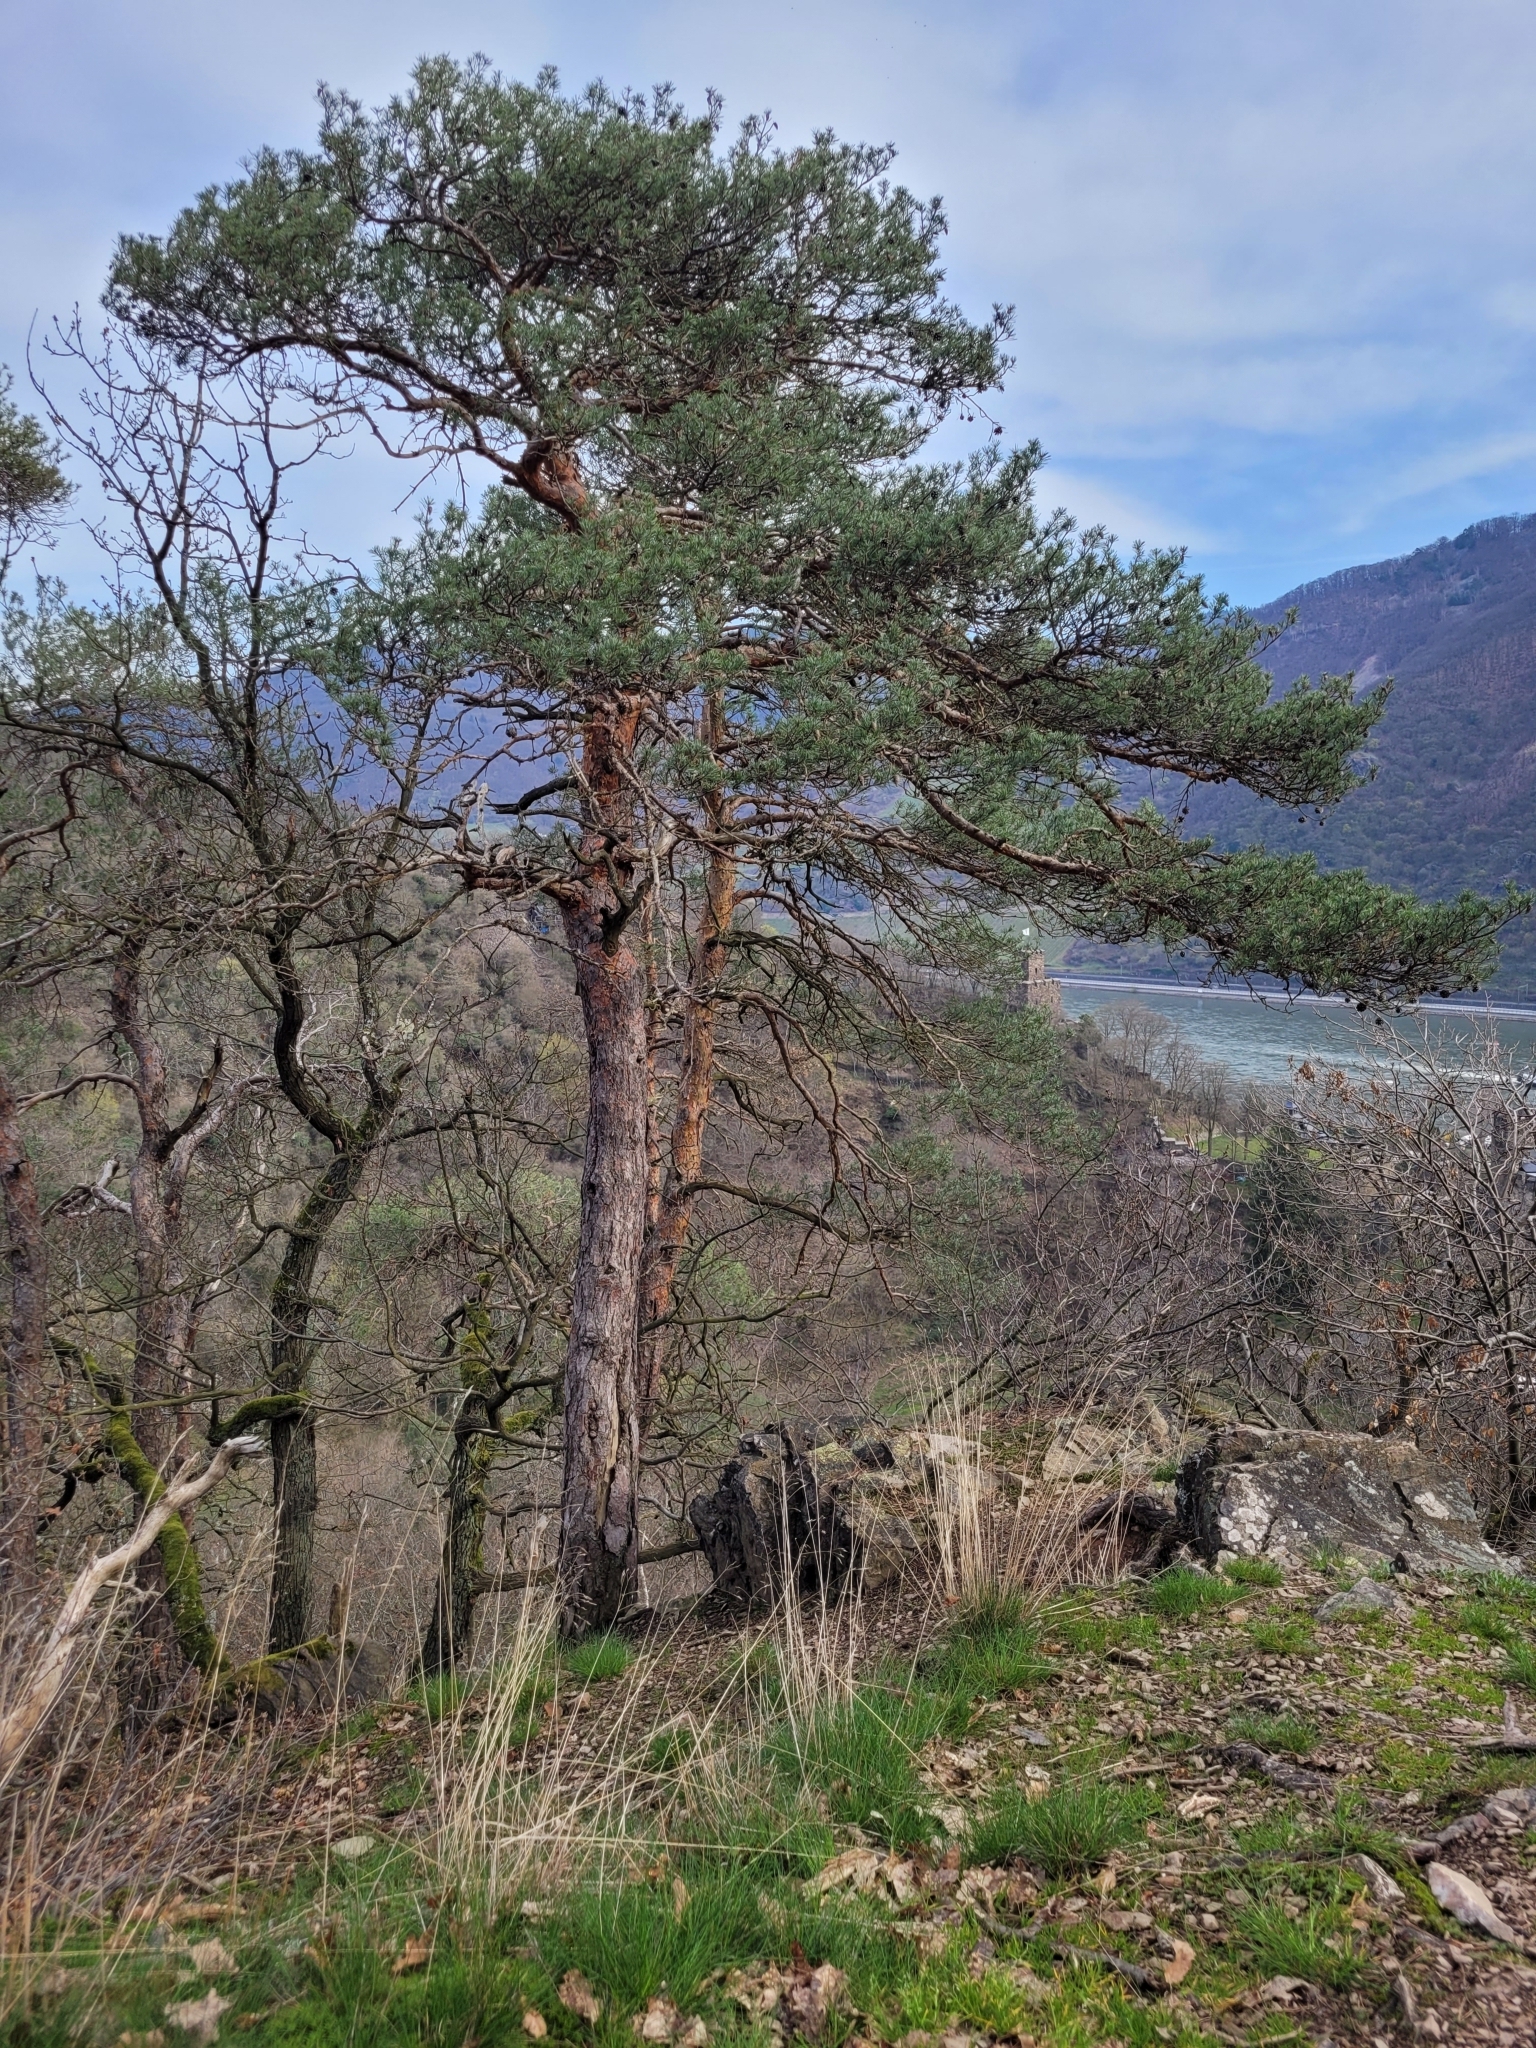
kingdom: Plantae
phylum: Tracheophyta
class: Pinopsida
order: Pinales
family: Pinaceae
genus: Pinus
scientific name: Pinus sylvestris
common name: Scots pine
